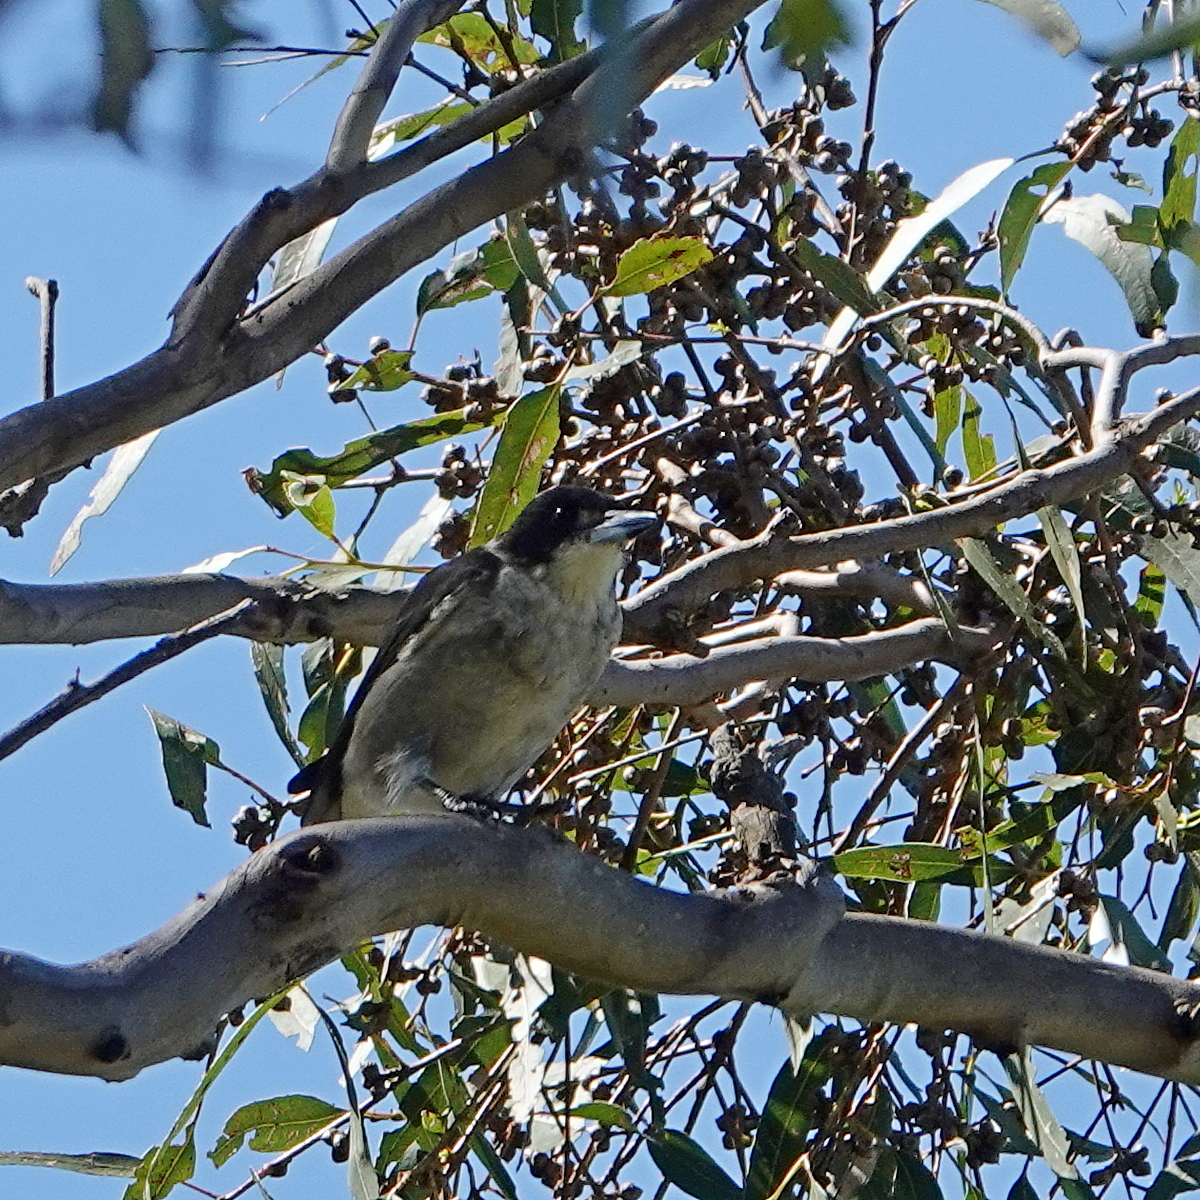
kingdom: Animalia
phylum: Chordata
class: Aves
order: Passeriformes
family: Cracticidae
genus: Cracticus
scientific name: Cracticus torquatus
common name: Grey butcherbird
